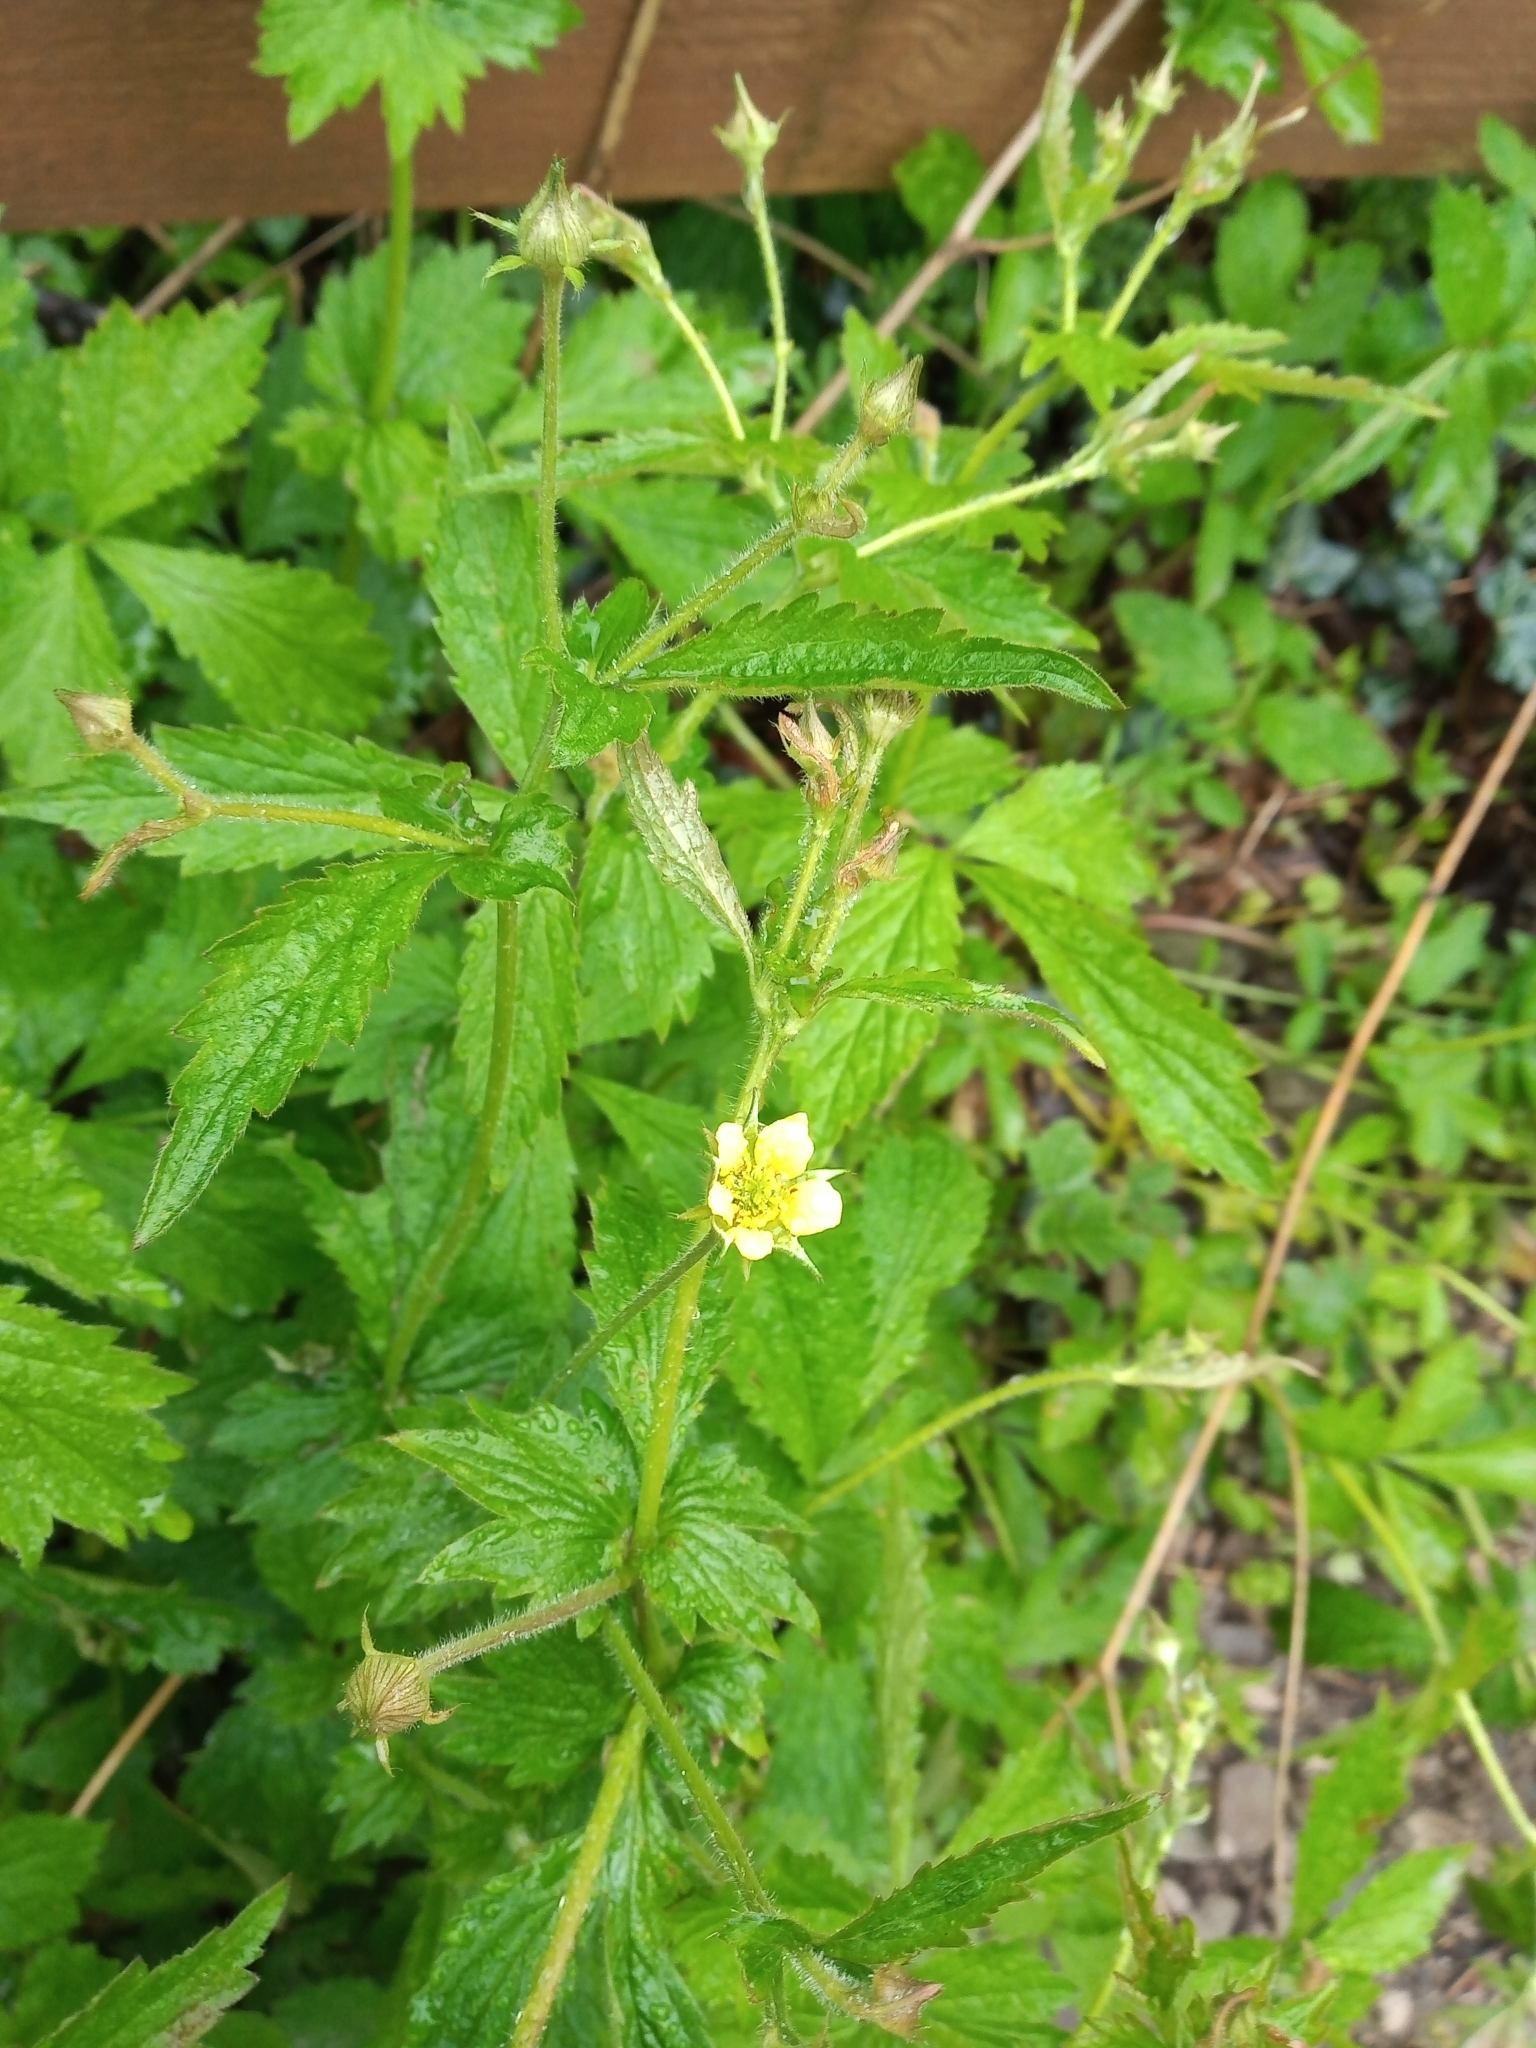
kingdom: Plantae
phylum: Tracheophyta
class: Magnoliopsida
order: Rosales
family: Rosaceae
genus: Geum
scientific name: Geum urbanum
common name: Wood avens
